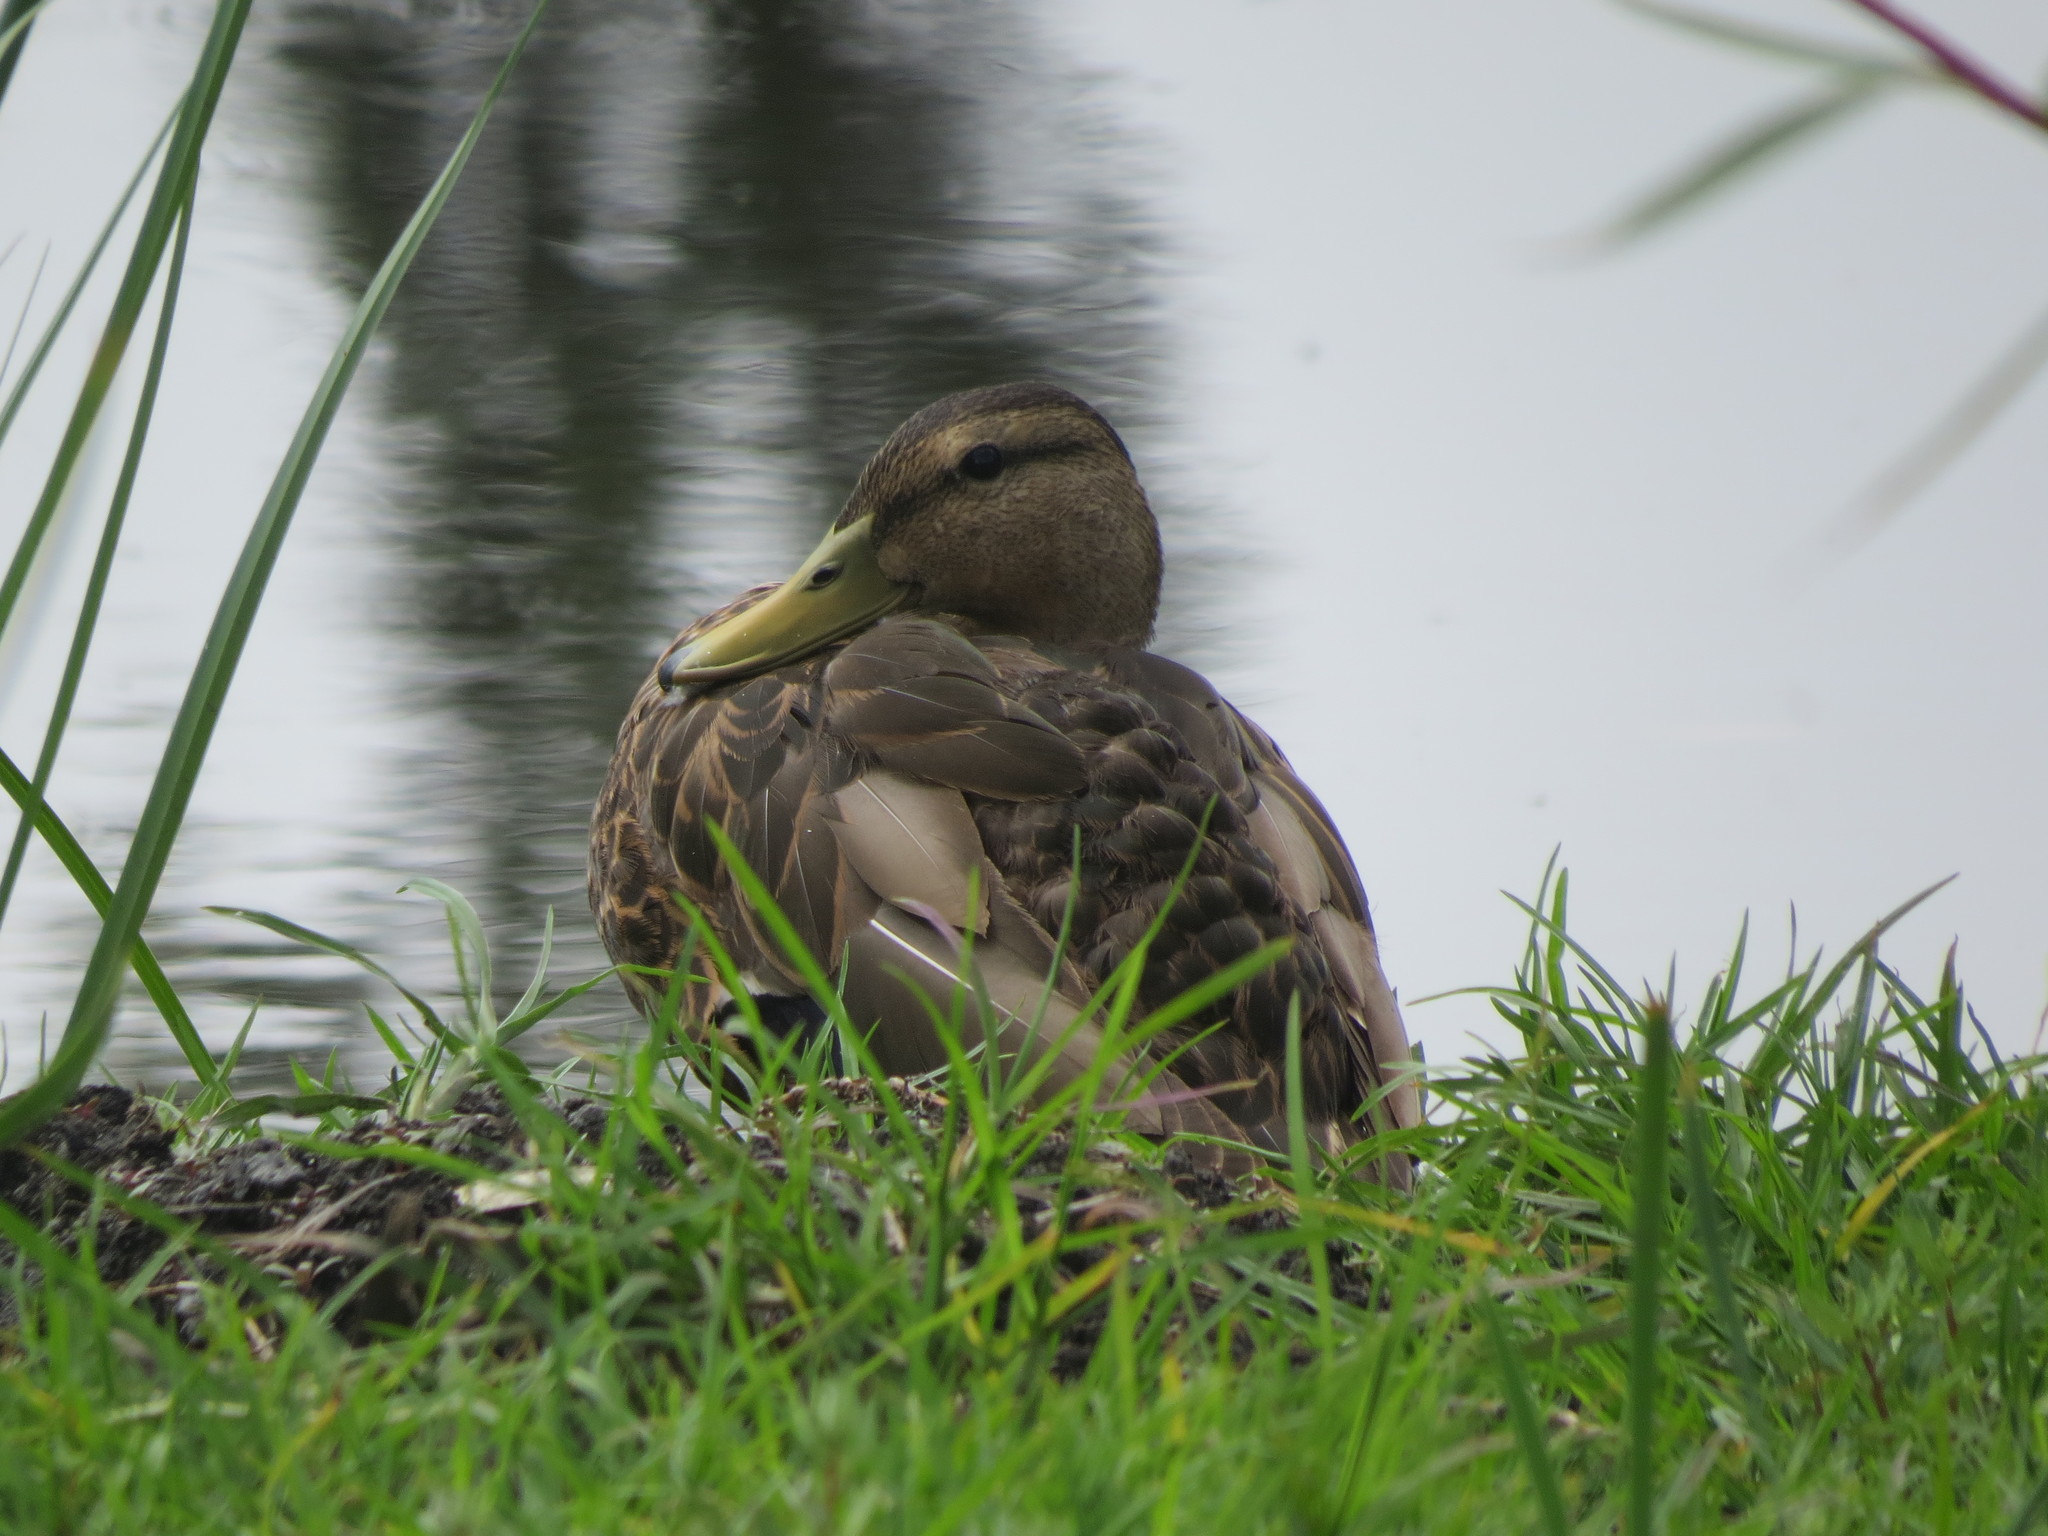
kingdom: Animalia
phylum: Chordata
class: Aves
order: Anseriformes
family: Anatidae
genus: Anas
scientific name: Anas diazi
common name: Mexican duck
